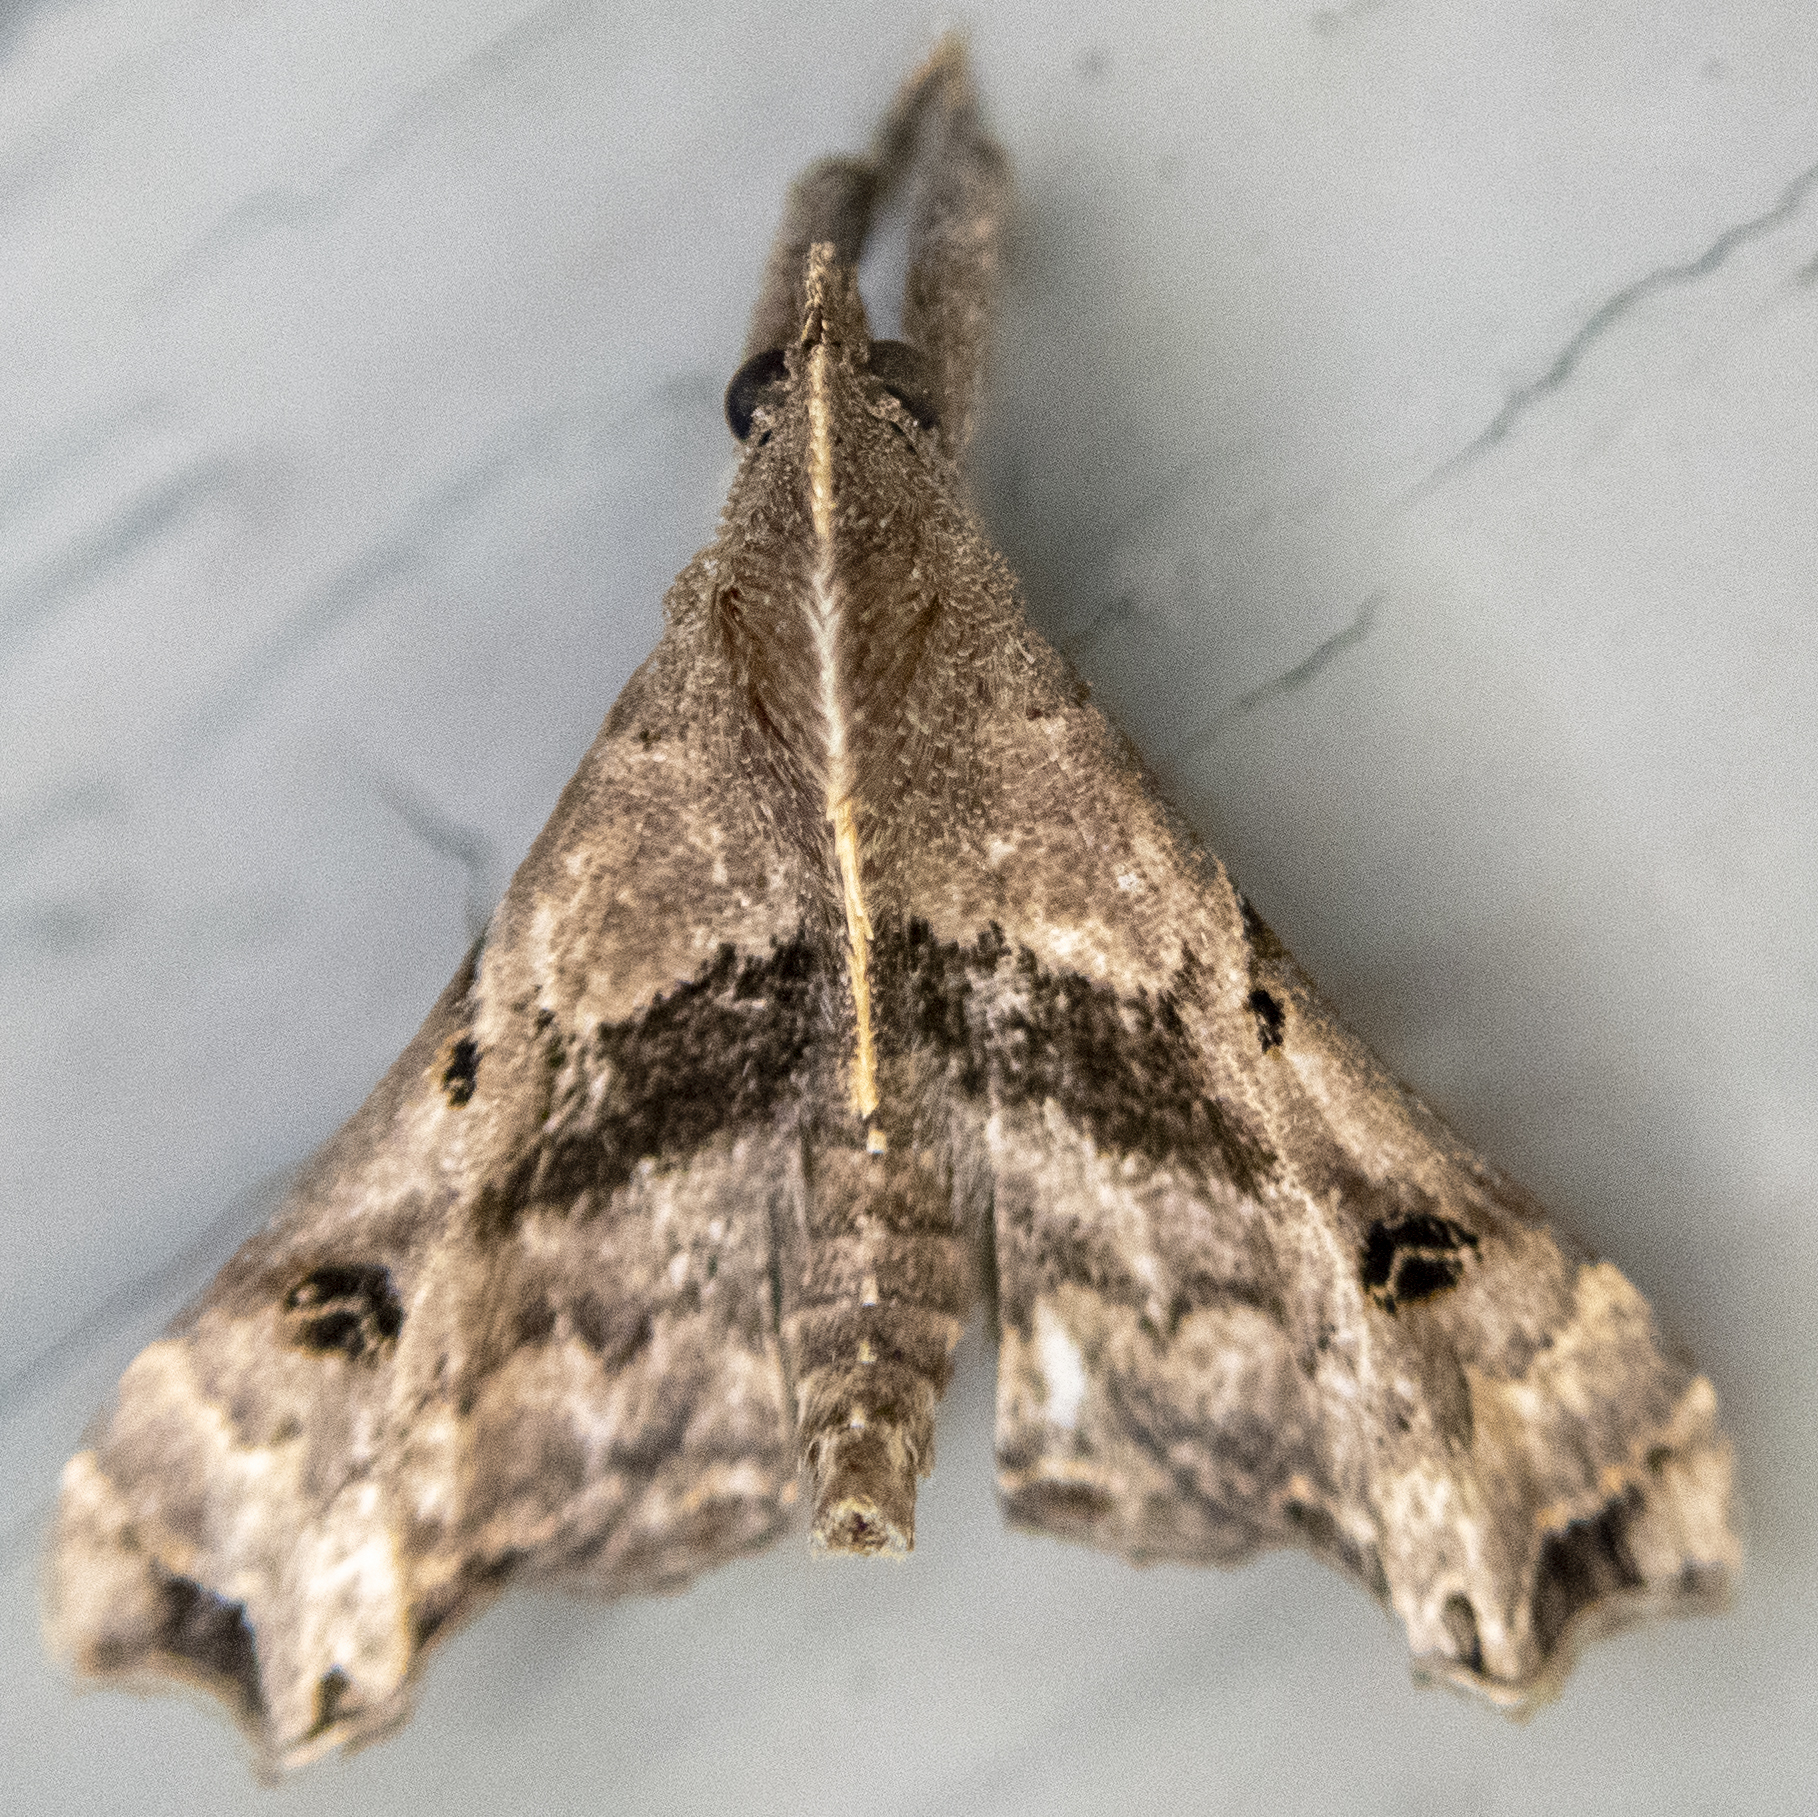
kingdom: Animalia
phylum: Arthropoda
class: Insecta
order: Lepidoptera
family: Erebidae
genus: Palthis
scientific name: Palthis asopialis
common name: Faint-spotted palthis moth
